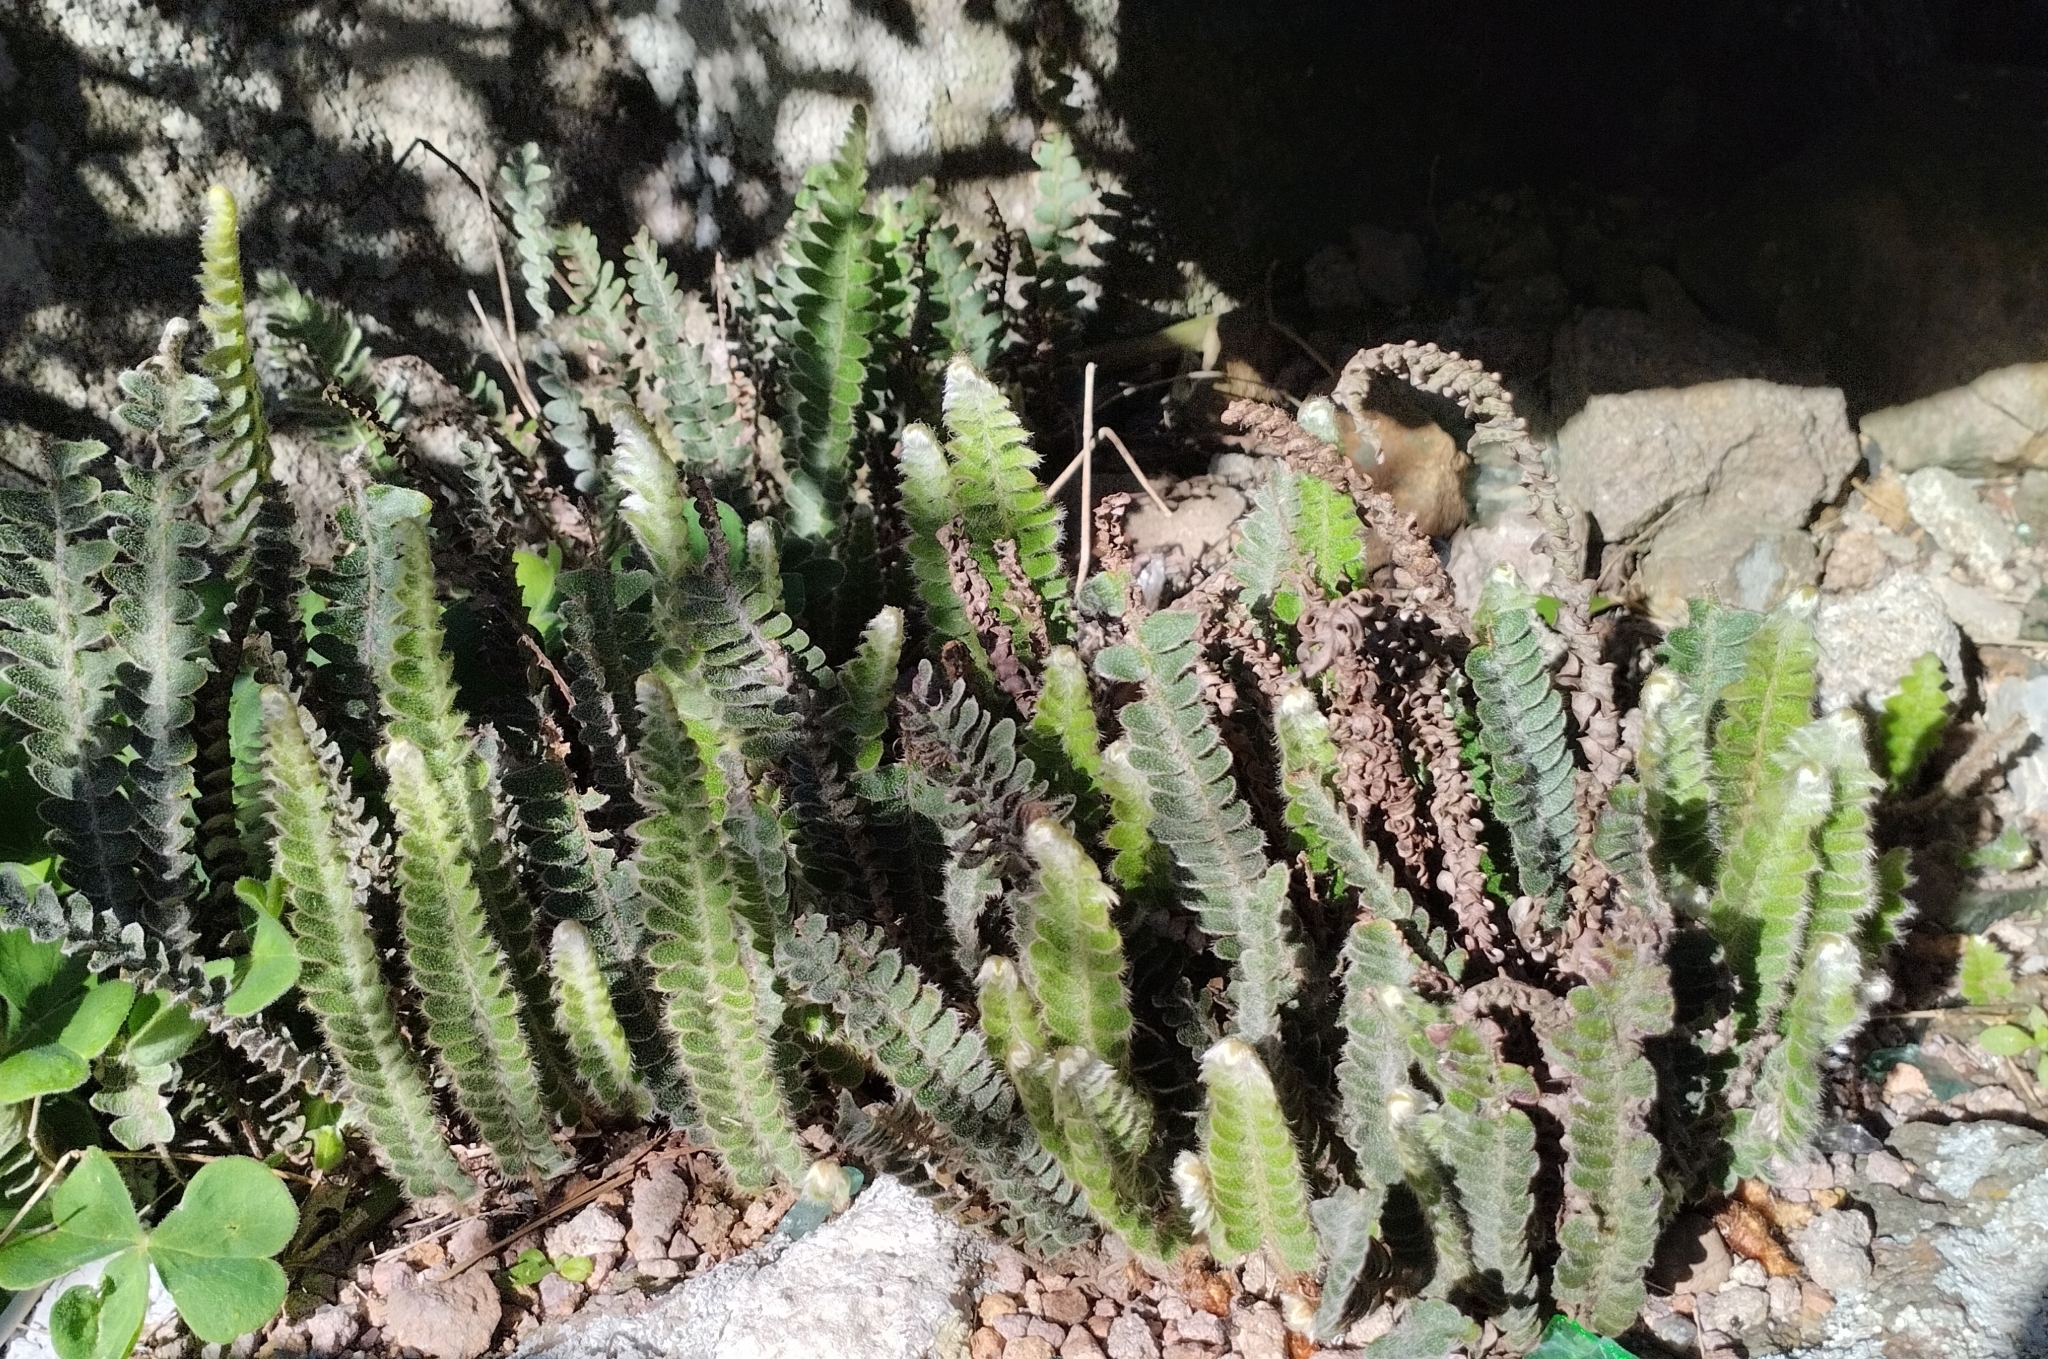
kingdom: Plantae
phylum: Tracheophyta
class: Polypodiopsida
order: Polypodiales
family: Polypodiaceae
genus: Pleopeltis
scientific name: Pleopeltis lepidopteris
